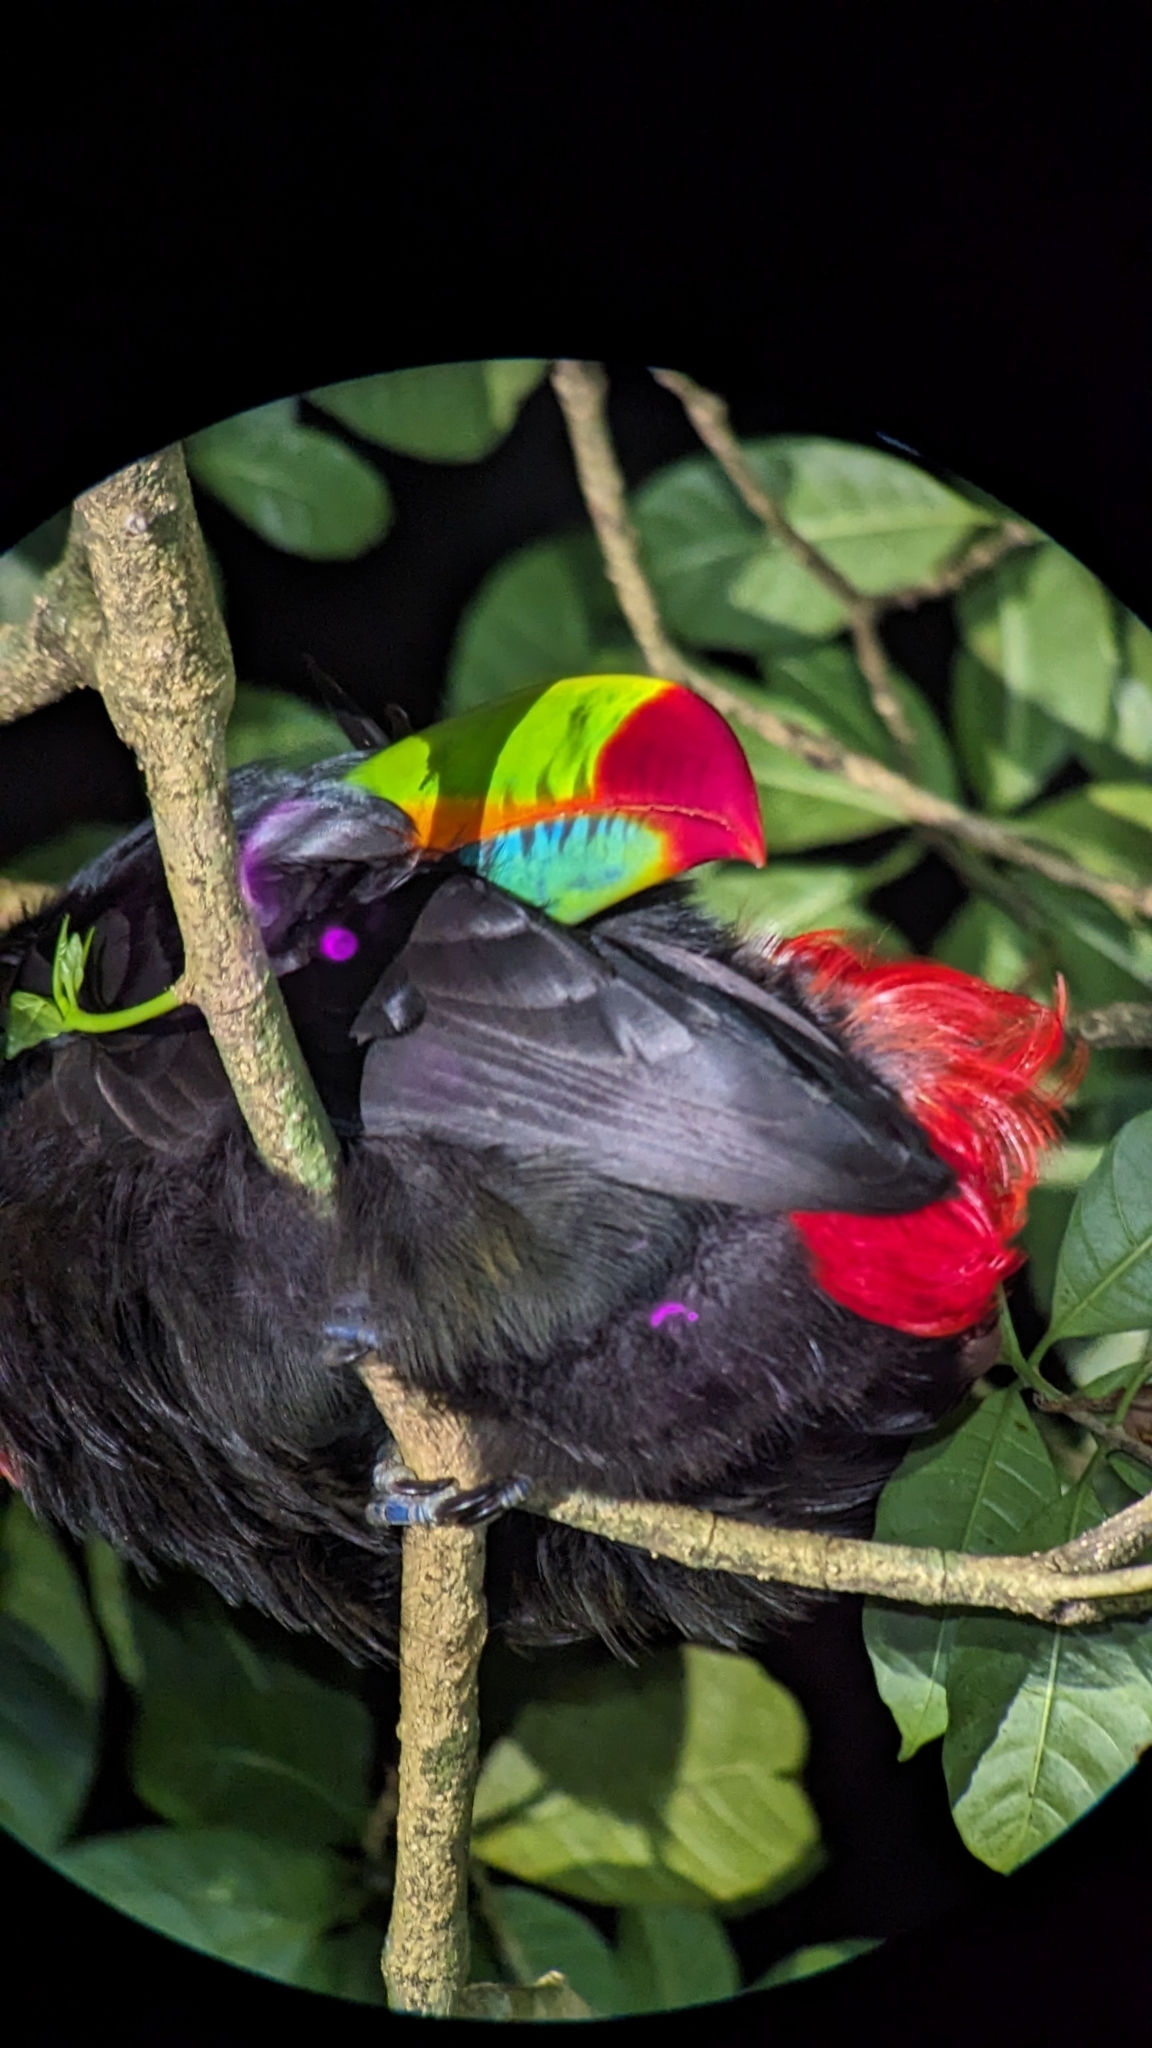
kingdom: Animalia
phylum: Chordata
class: Aves
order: Piciformes
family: Ramphastidae
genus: Ramphastos
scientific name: Ramphastos sulfuratus
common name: Keel-billed toucan
